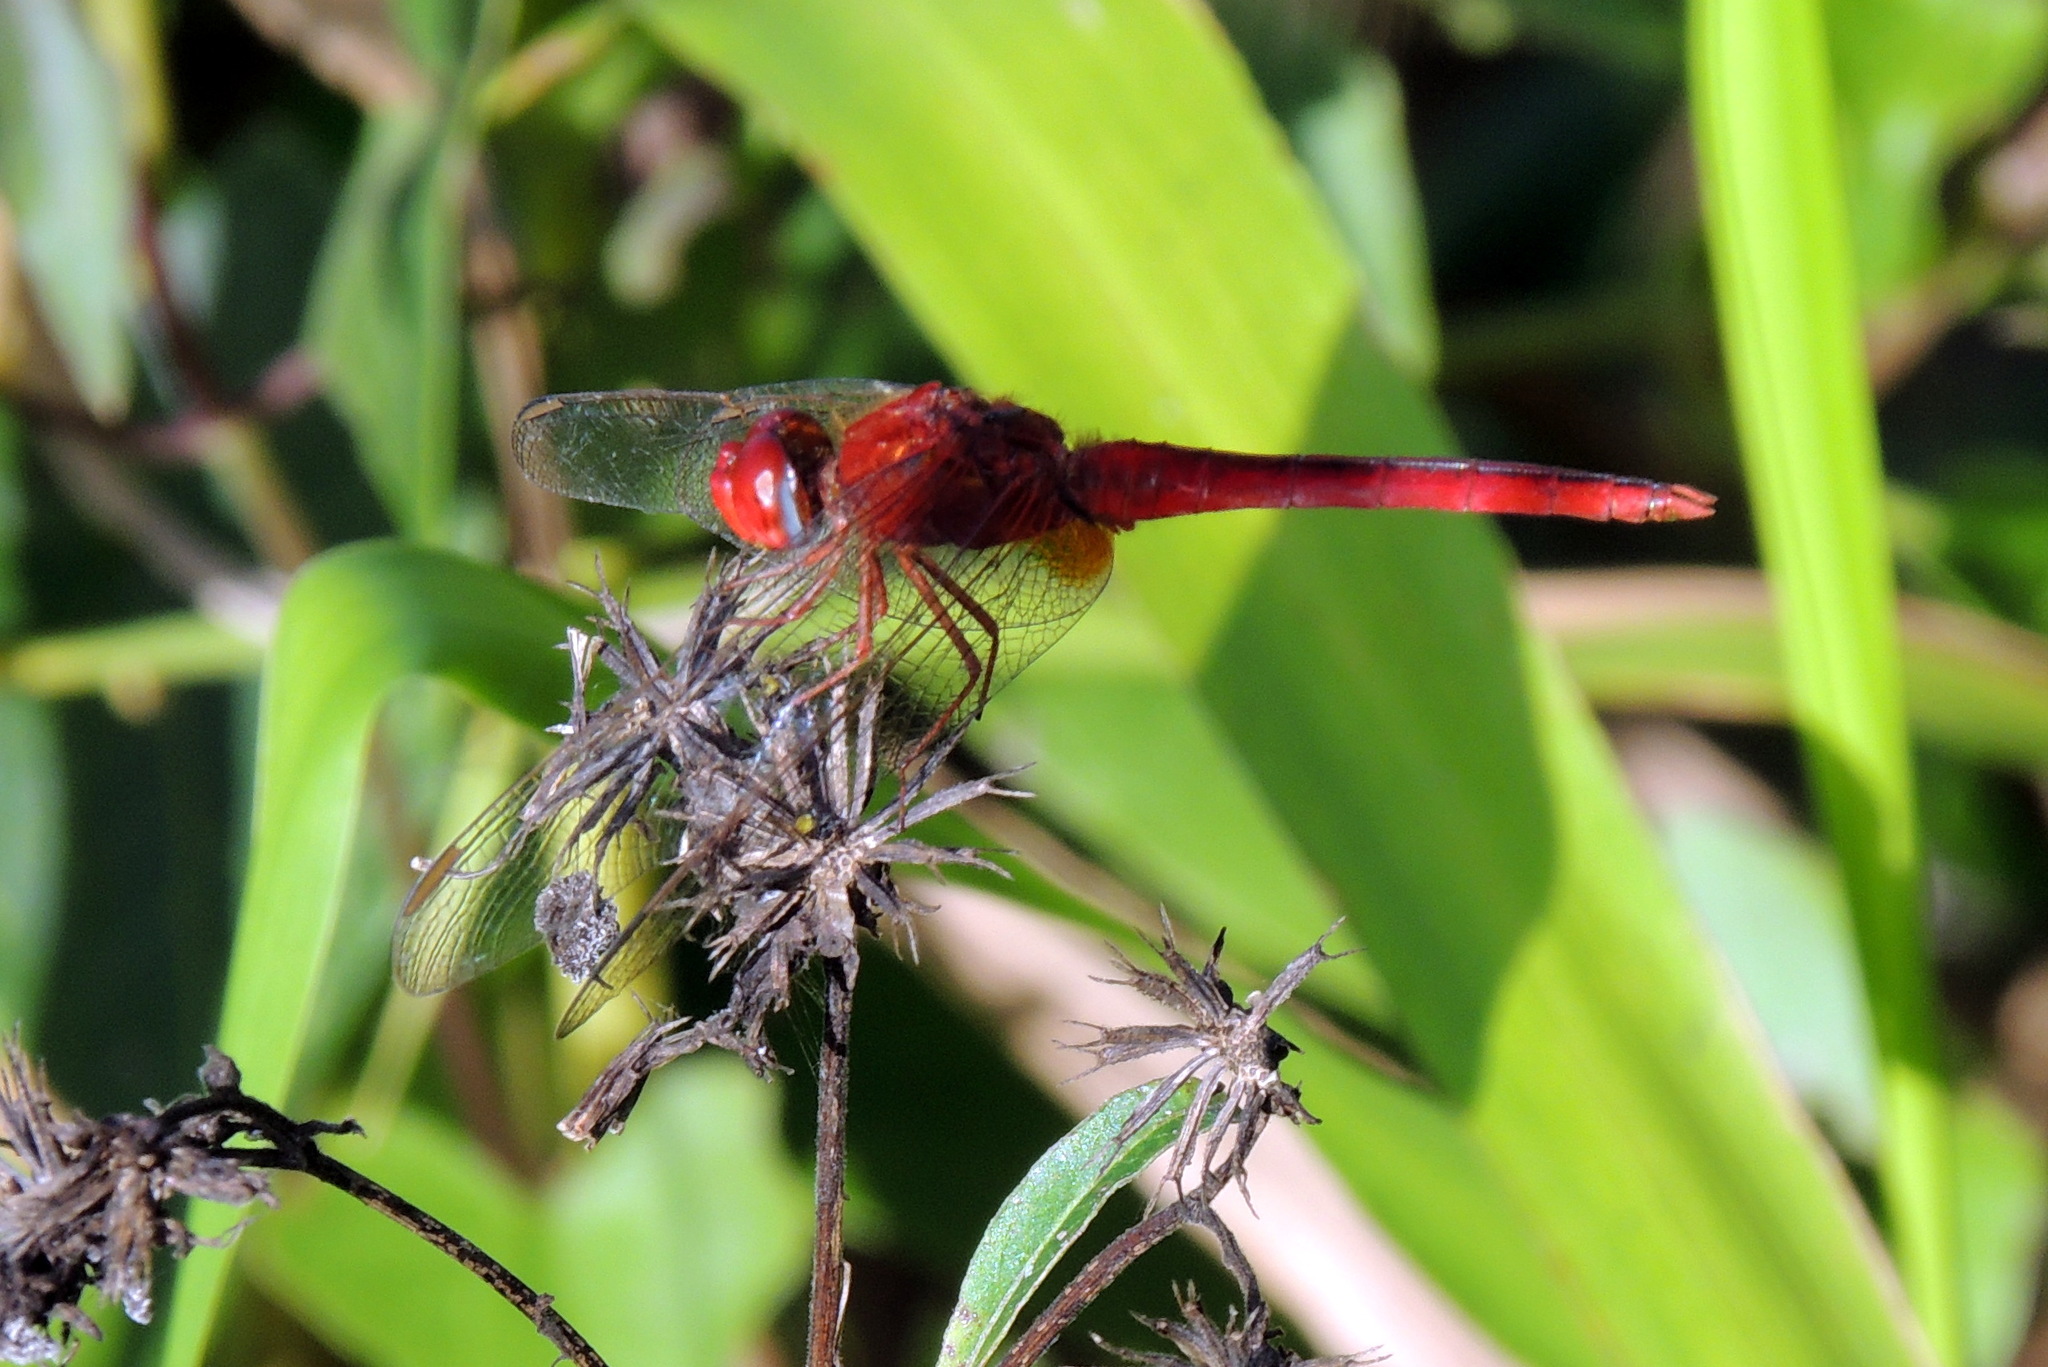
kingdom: Animalia
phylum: Arthropoda
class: Insecta
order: Odonata
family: Libellulidae
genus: Crocothemis
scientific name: Crocothemis servilia
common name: Scarlet skimmer
